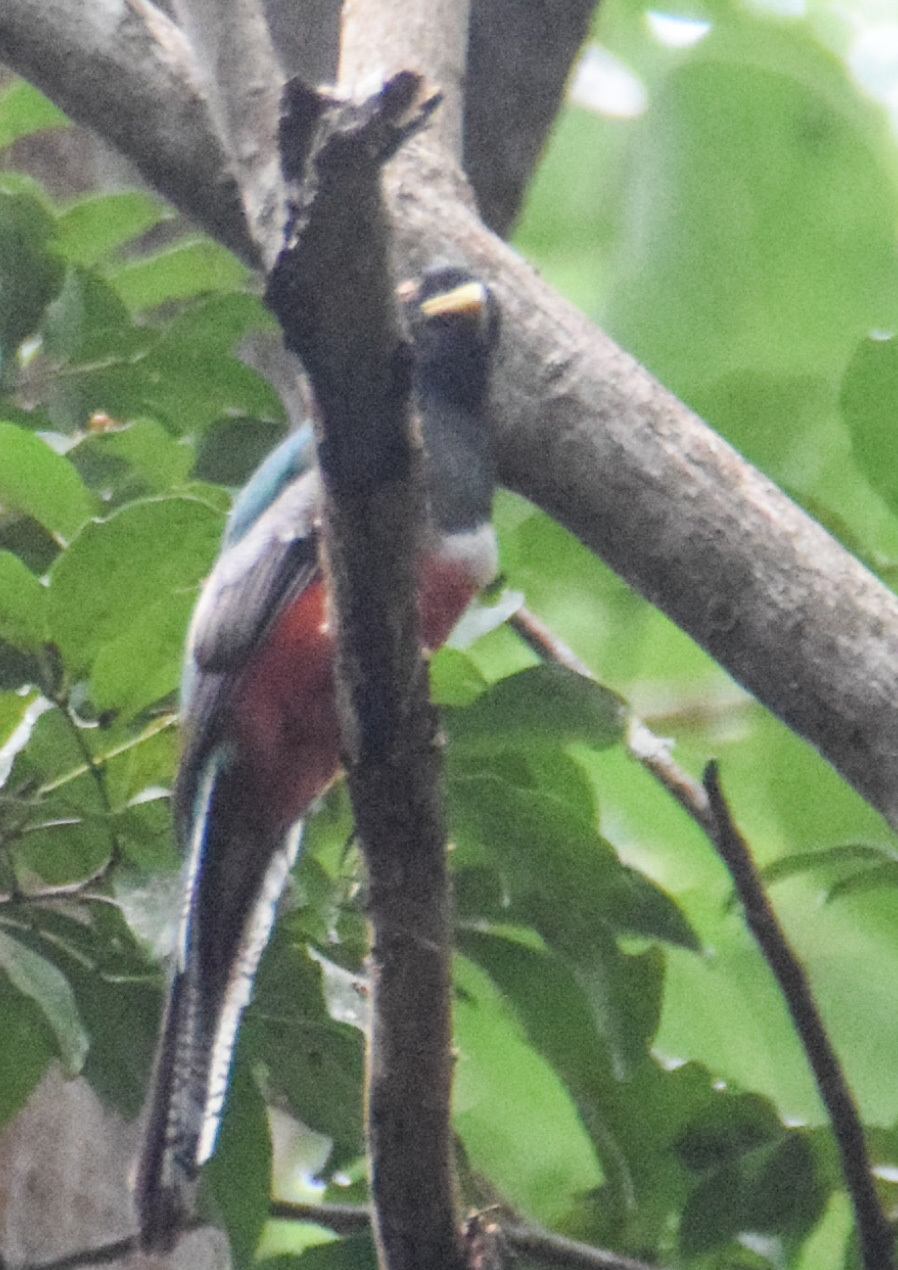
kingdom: Animalia
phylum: Chordata
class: Aves
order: Trogoniformes
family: Trogonidae
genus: Trogon
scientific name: Trogon collaris
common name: Collared trogon
